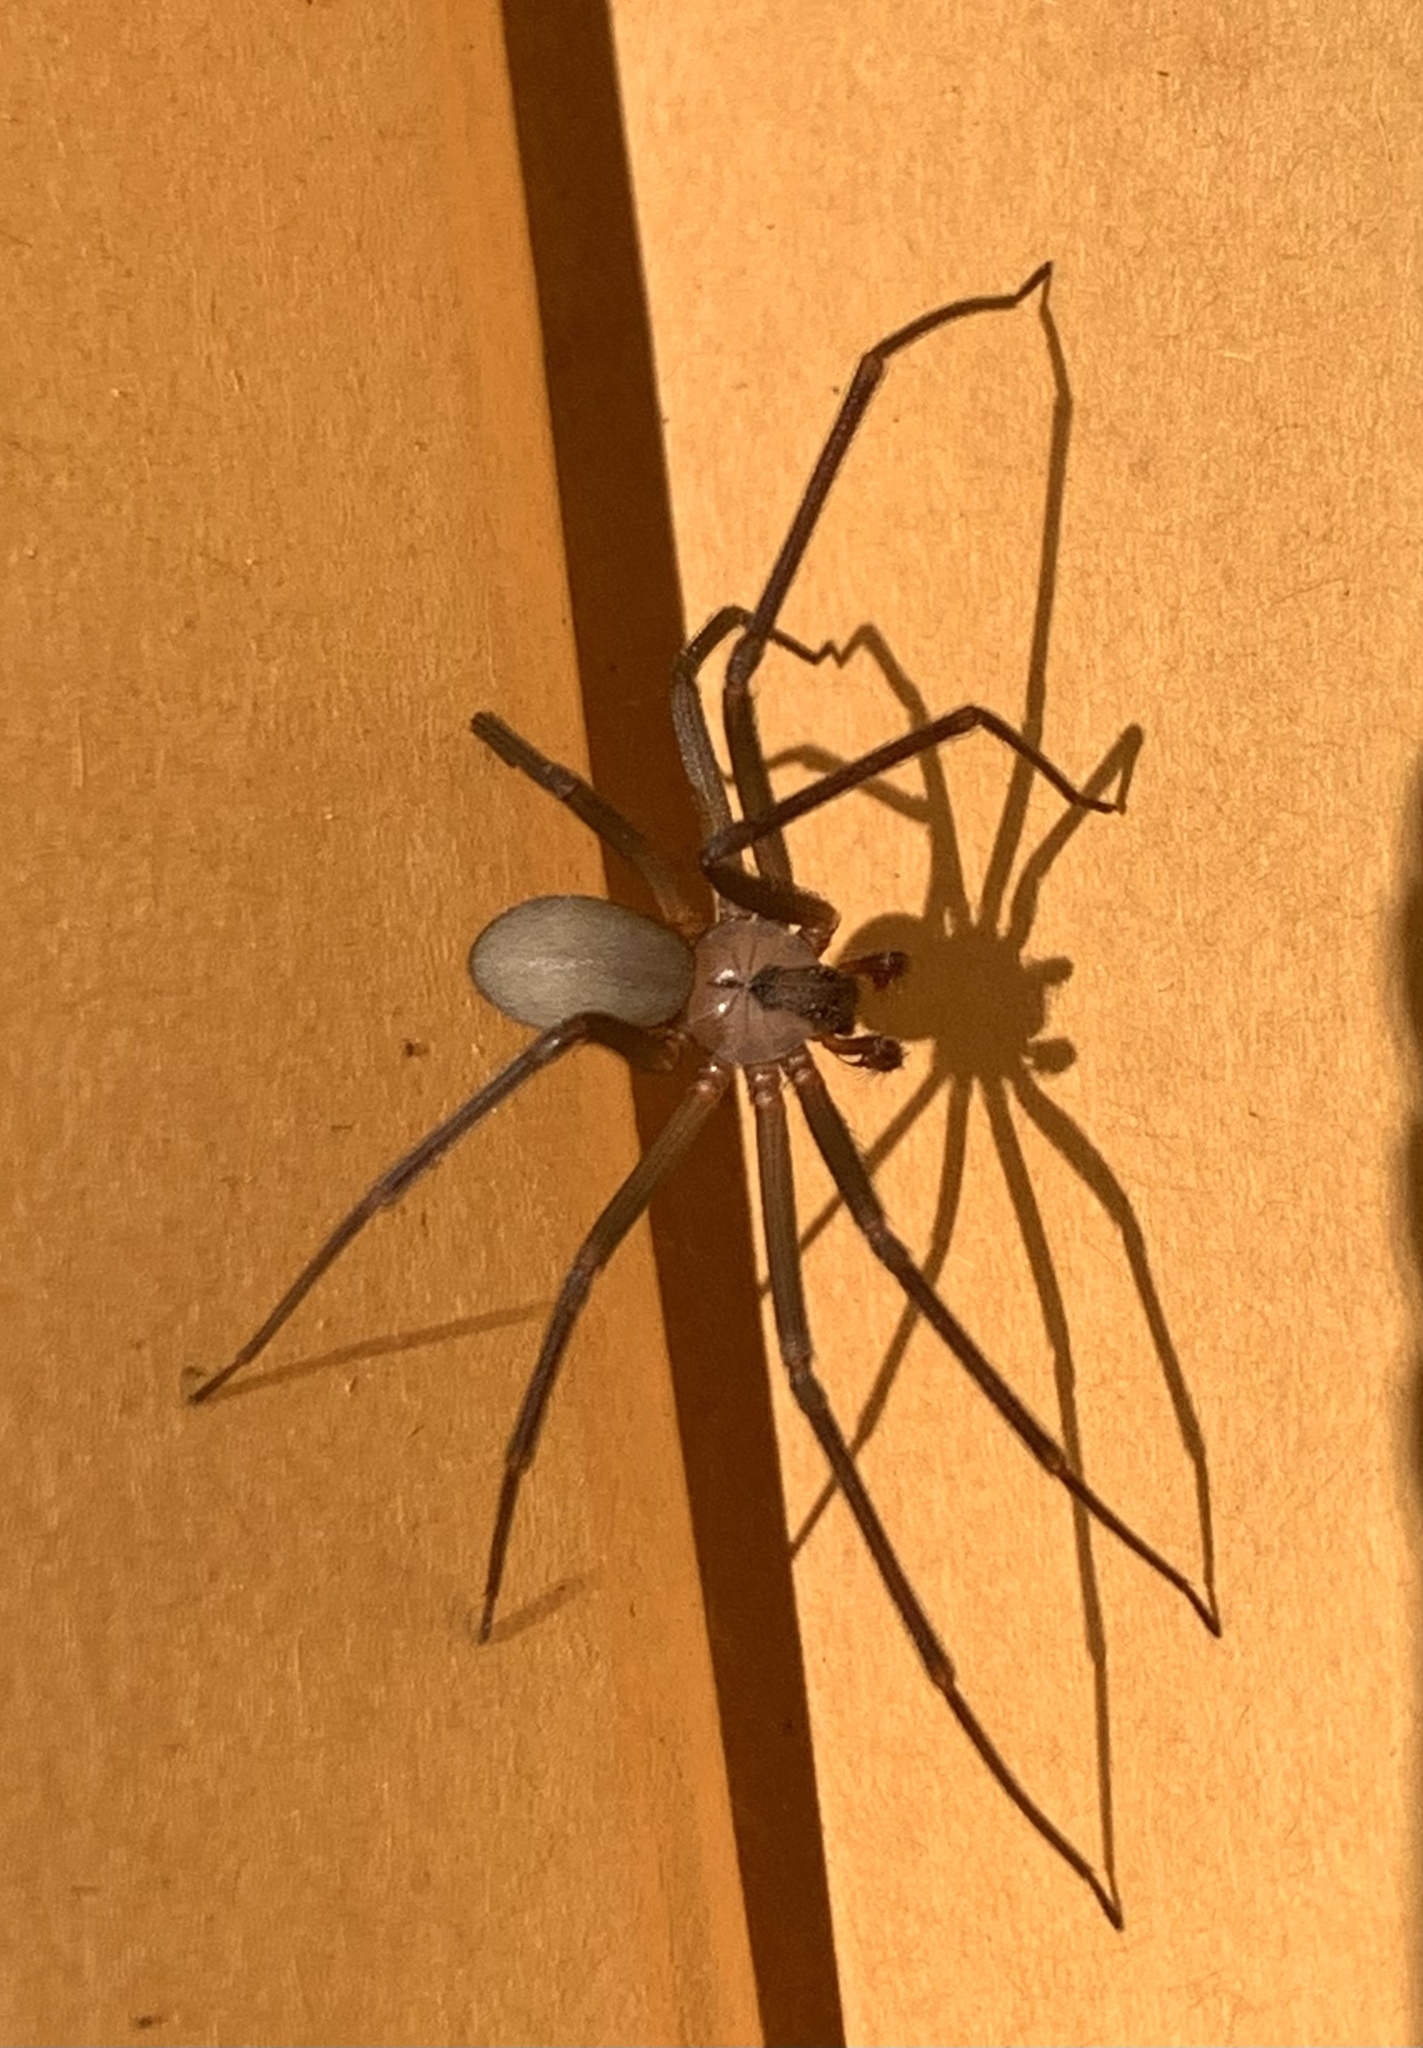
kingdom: Animalia
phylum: Arthropoda
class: Arachnida
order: Araneae
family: Sicariidae
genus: Loxosceles
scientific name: Loxosceles reclusa
